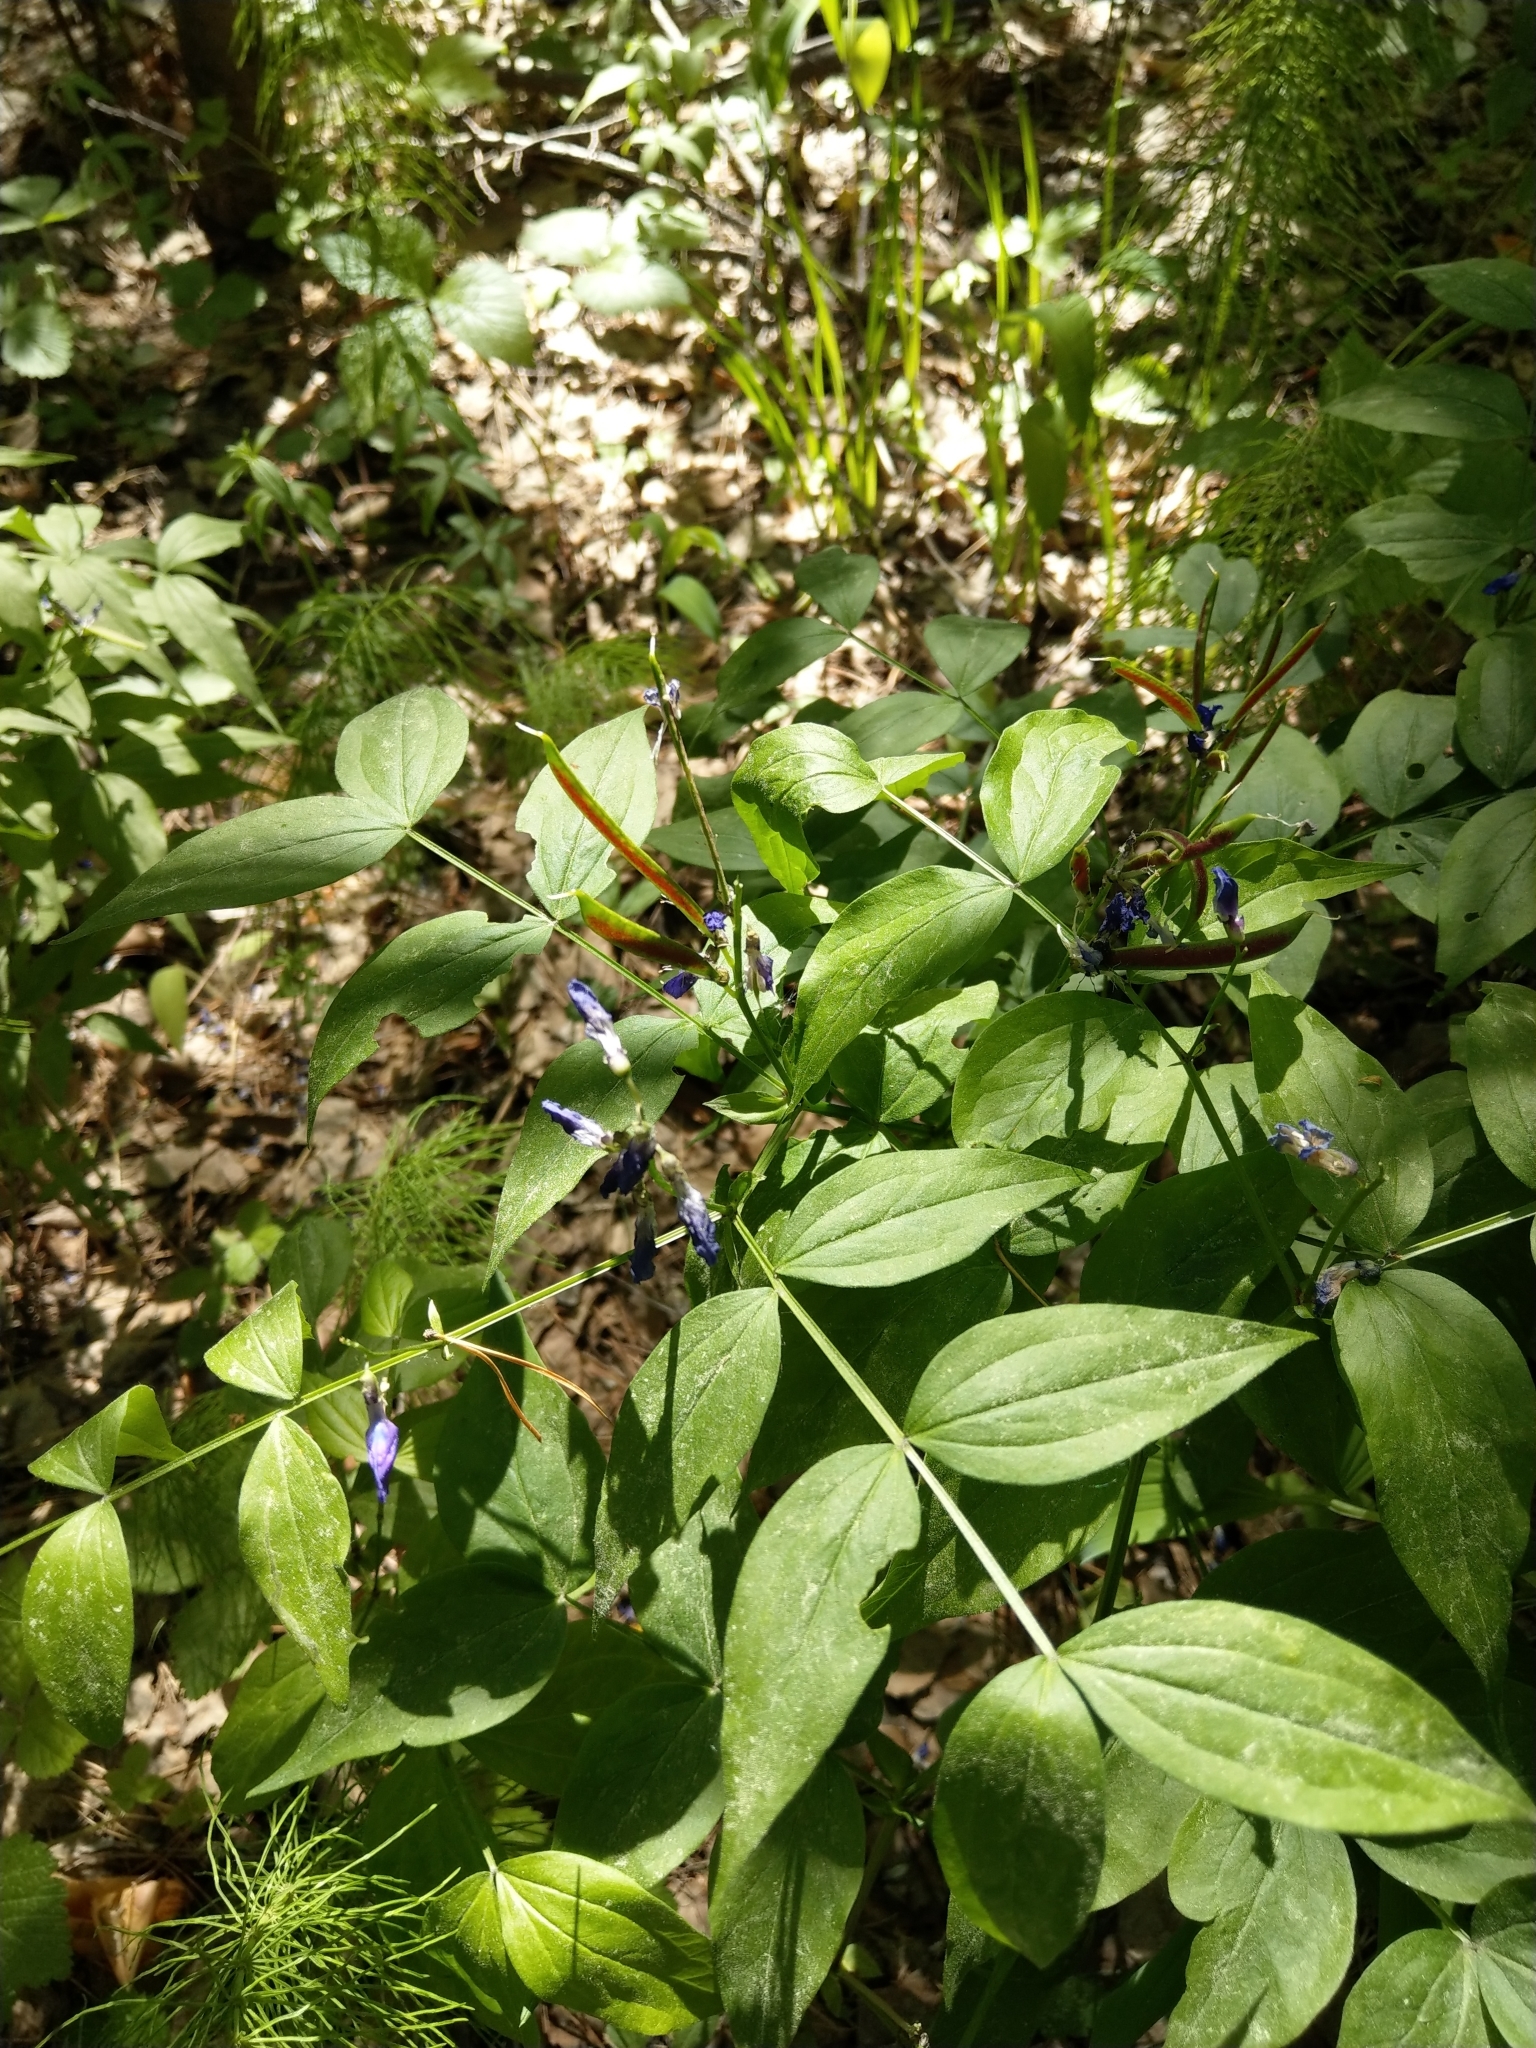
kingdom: Plantae
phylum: Tracheophyta
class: Magnoliopsida
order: Fabales
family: Fabaceae
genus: Lathyrus
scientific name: Lathyrus vernus
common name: Spring pea
